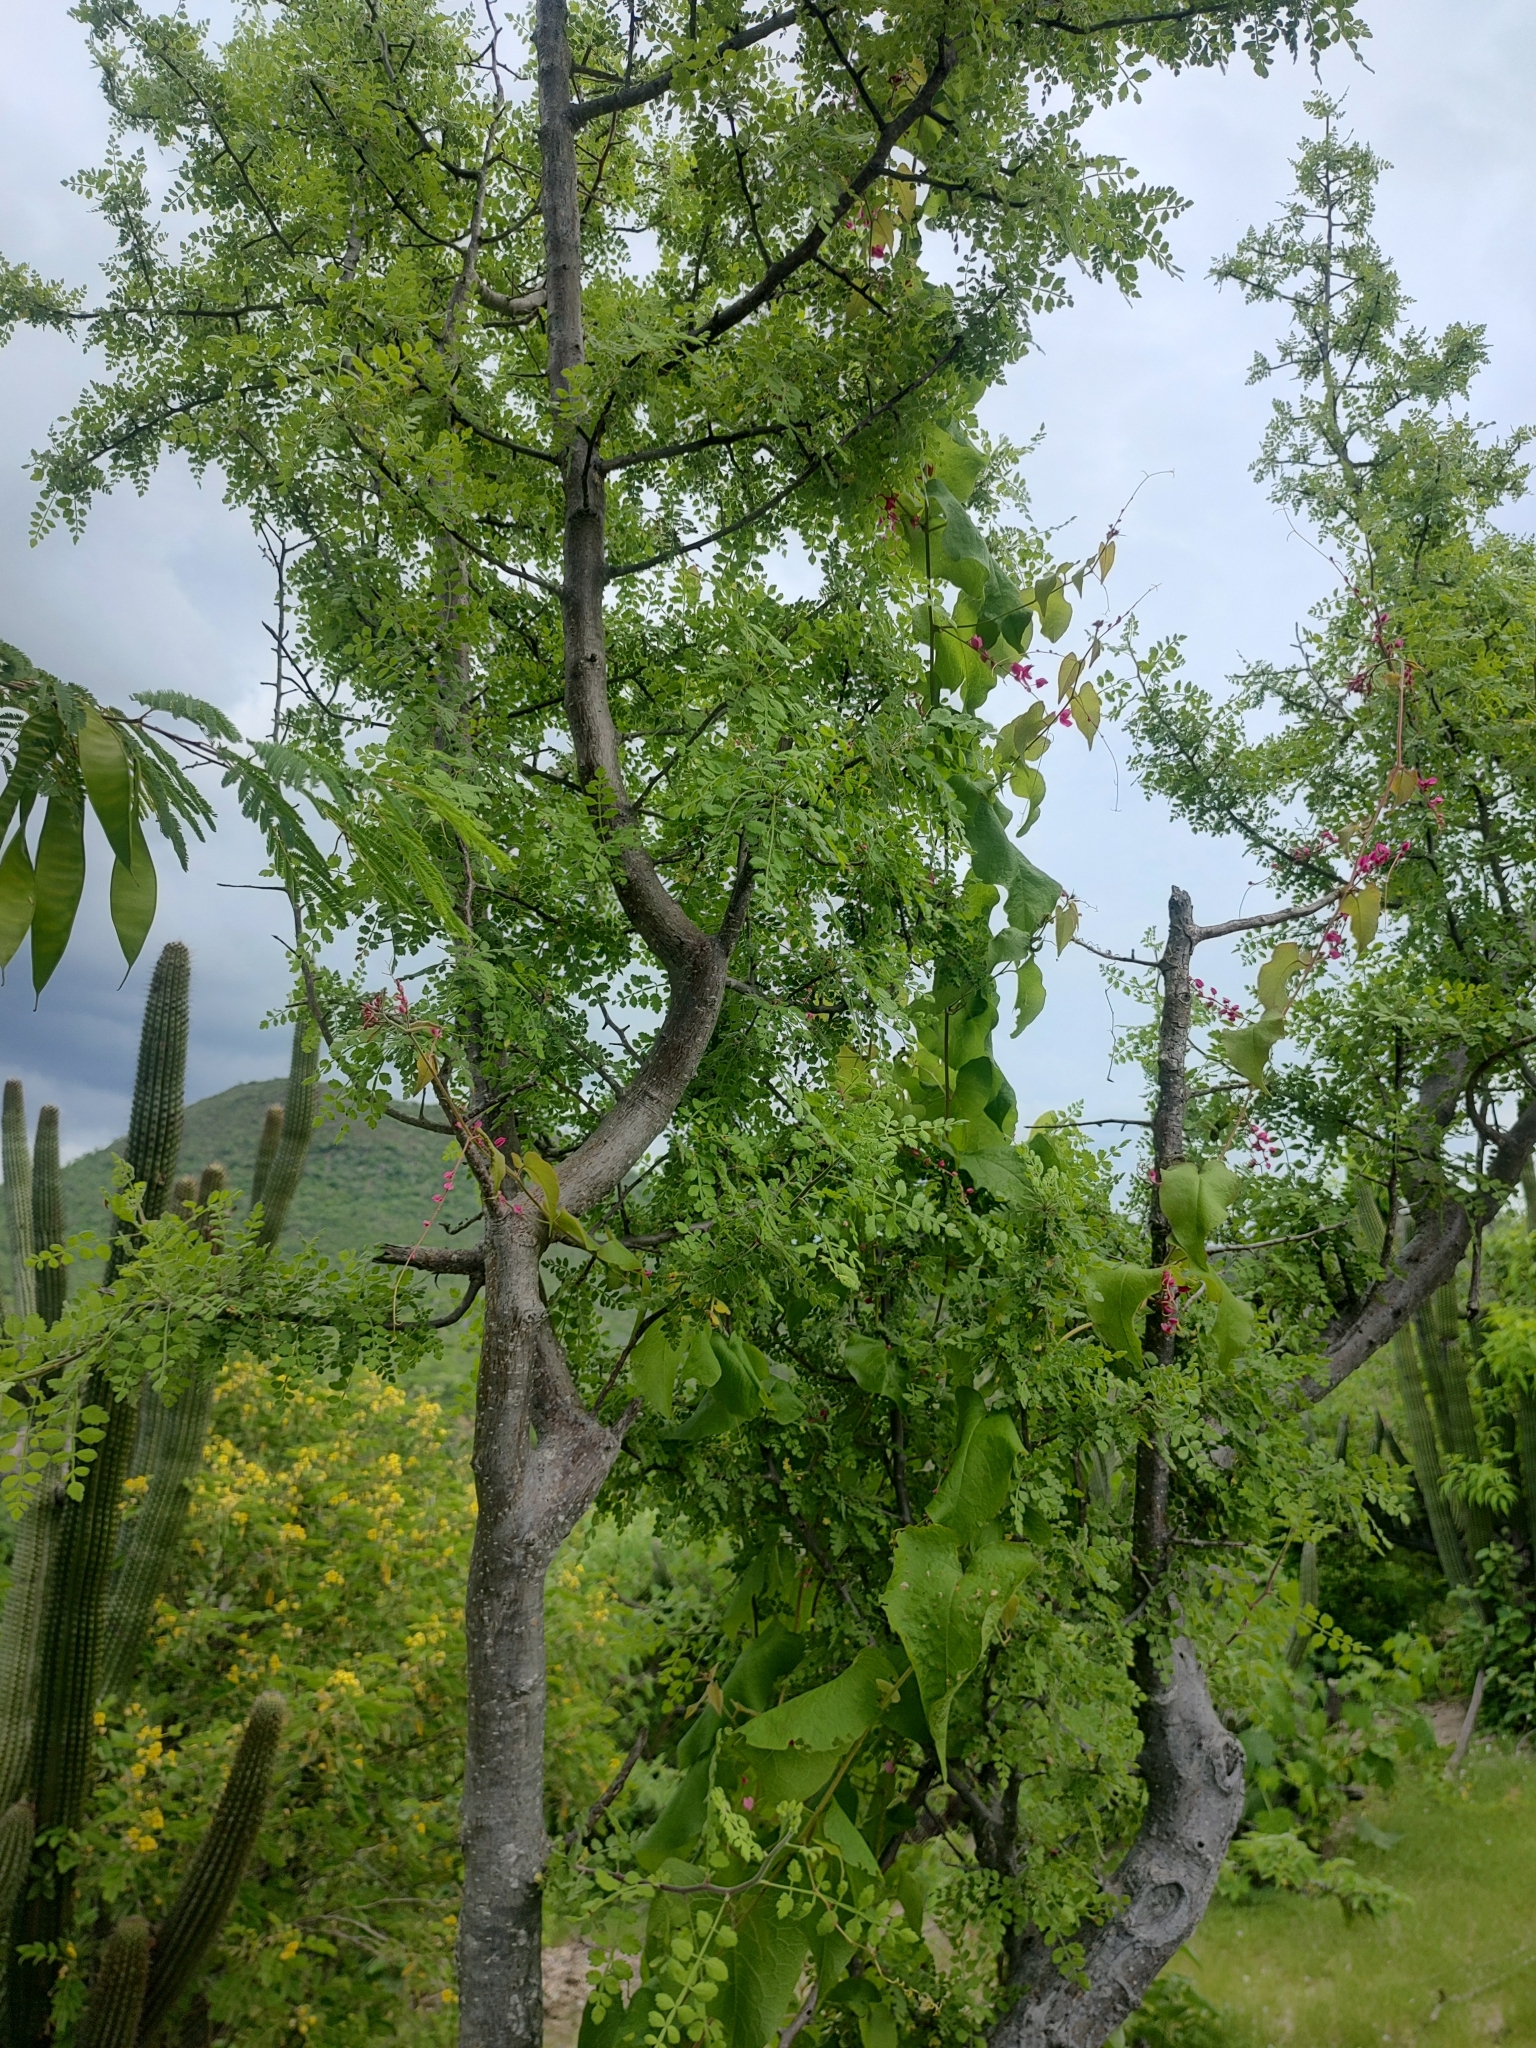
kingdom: Plantae
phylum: Tracheophyta
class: Magnoliopsida
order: Sapindales
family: Burseraceae
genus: Bursera
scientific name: Bursera filicifolia
